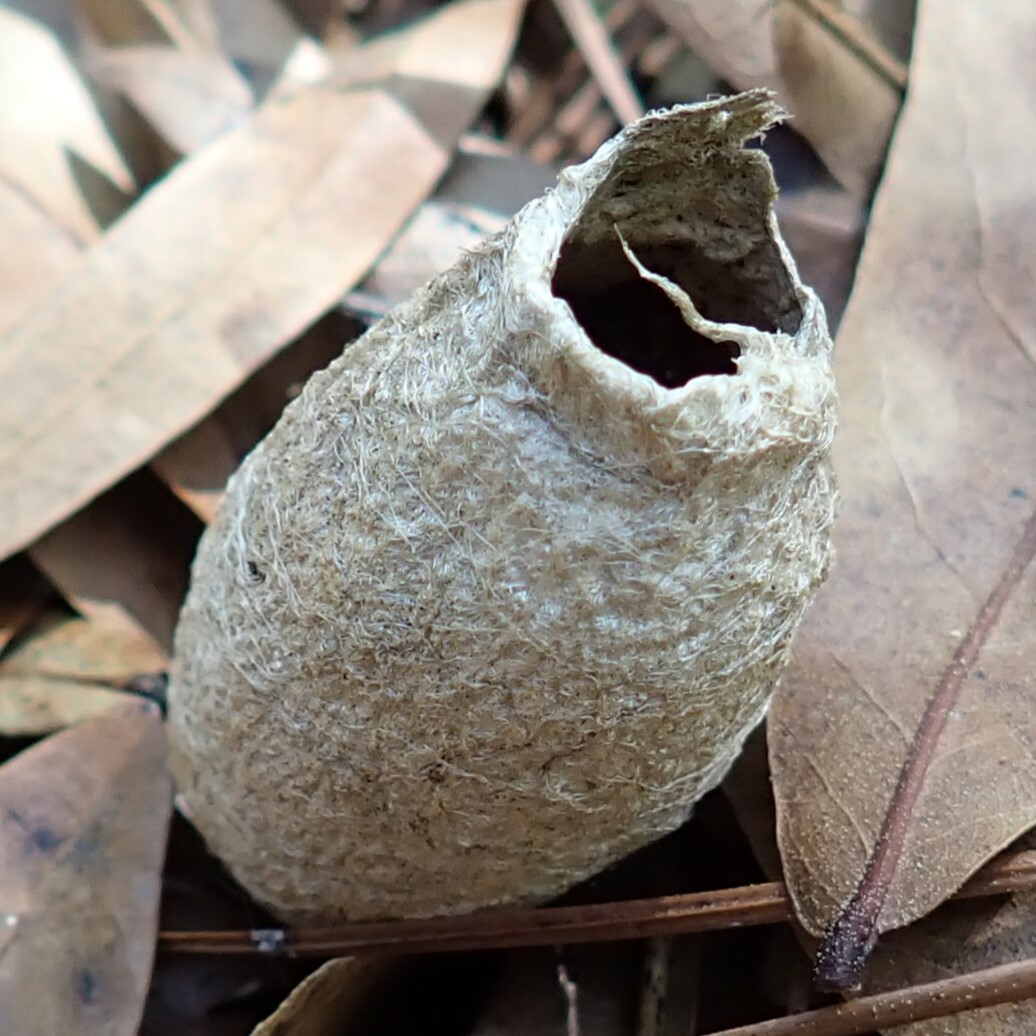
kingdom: Animalia
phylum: Arthropoda
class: Insecta
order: Lepidoptera
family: Saturniidae
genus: Antheraea
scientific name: Antheraea polyphemus
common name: Polyphemus moth
